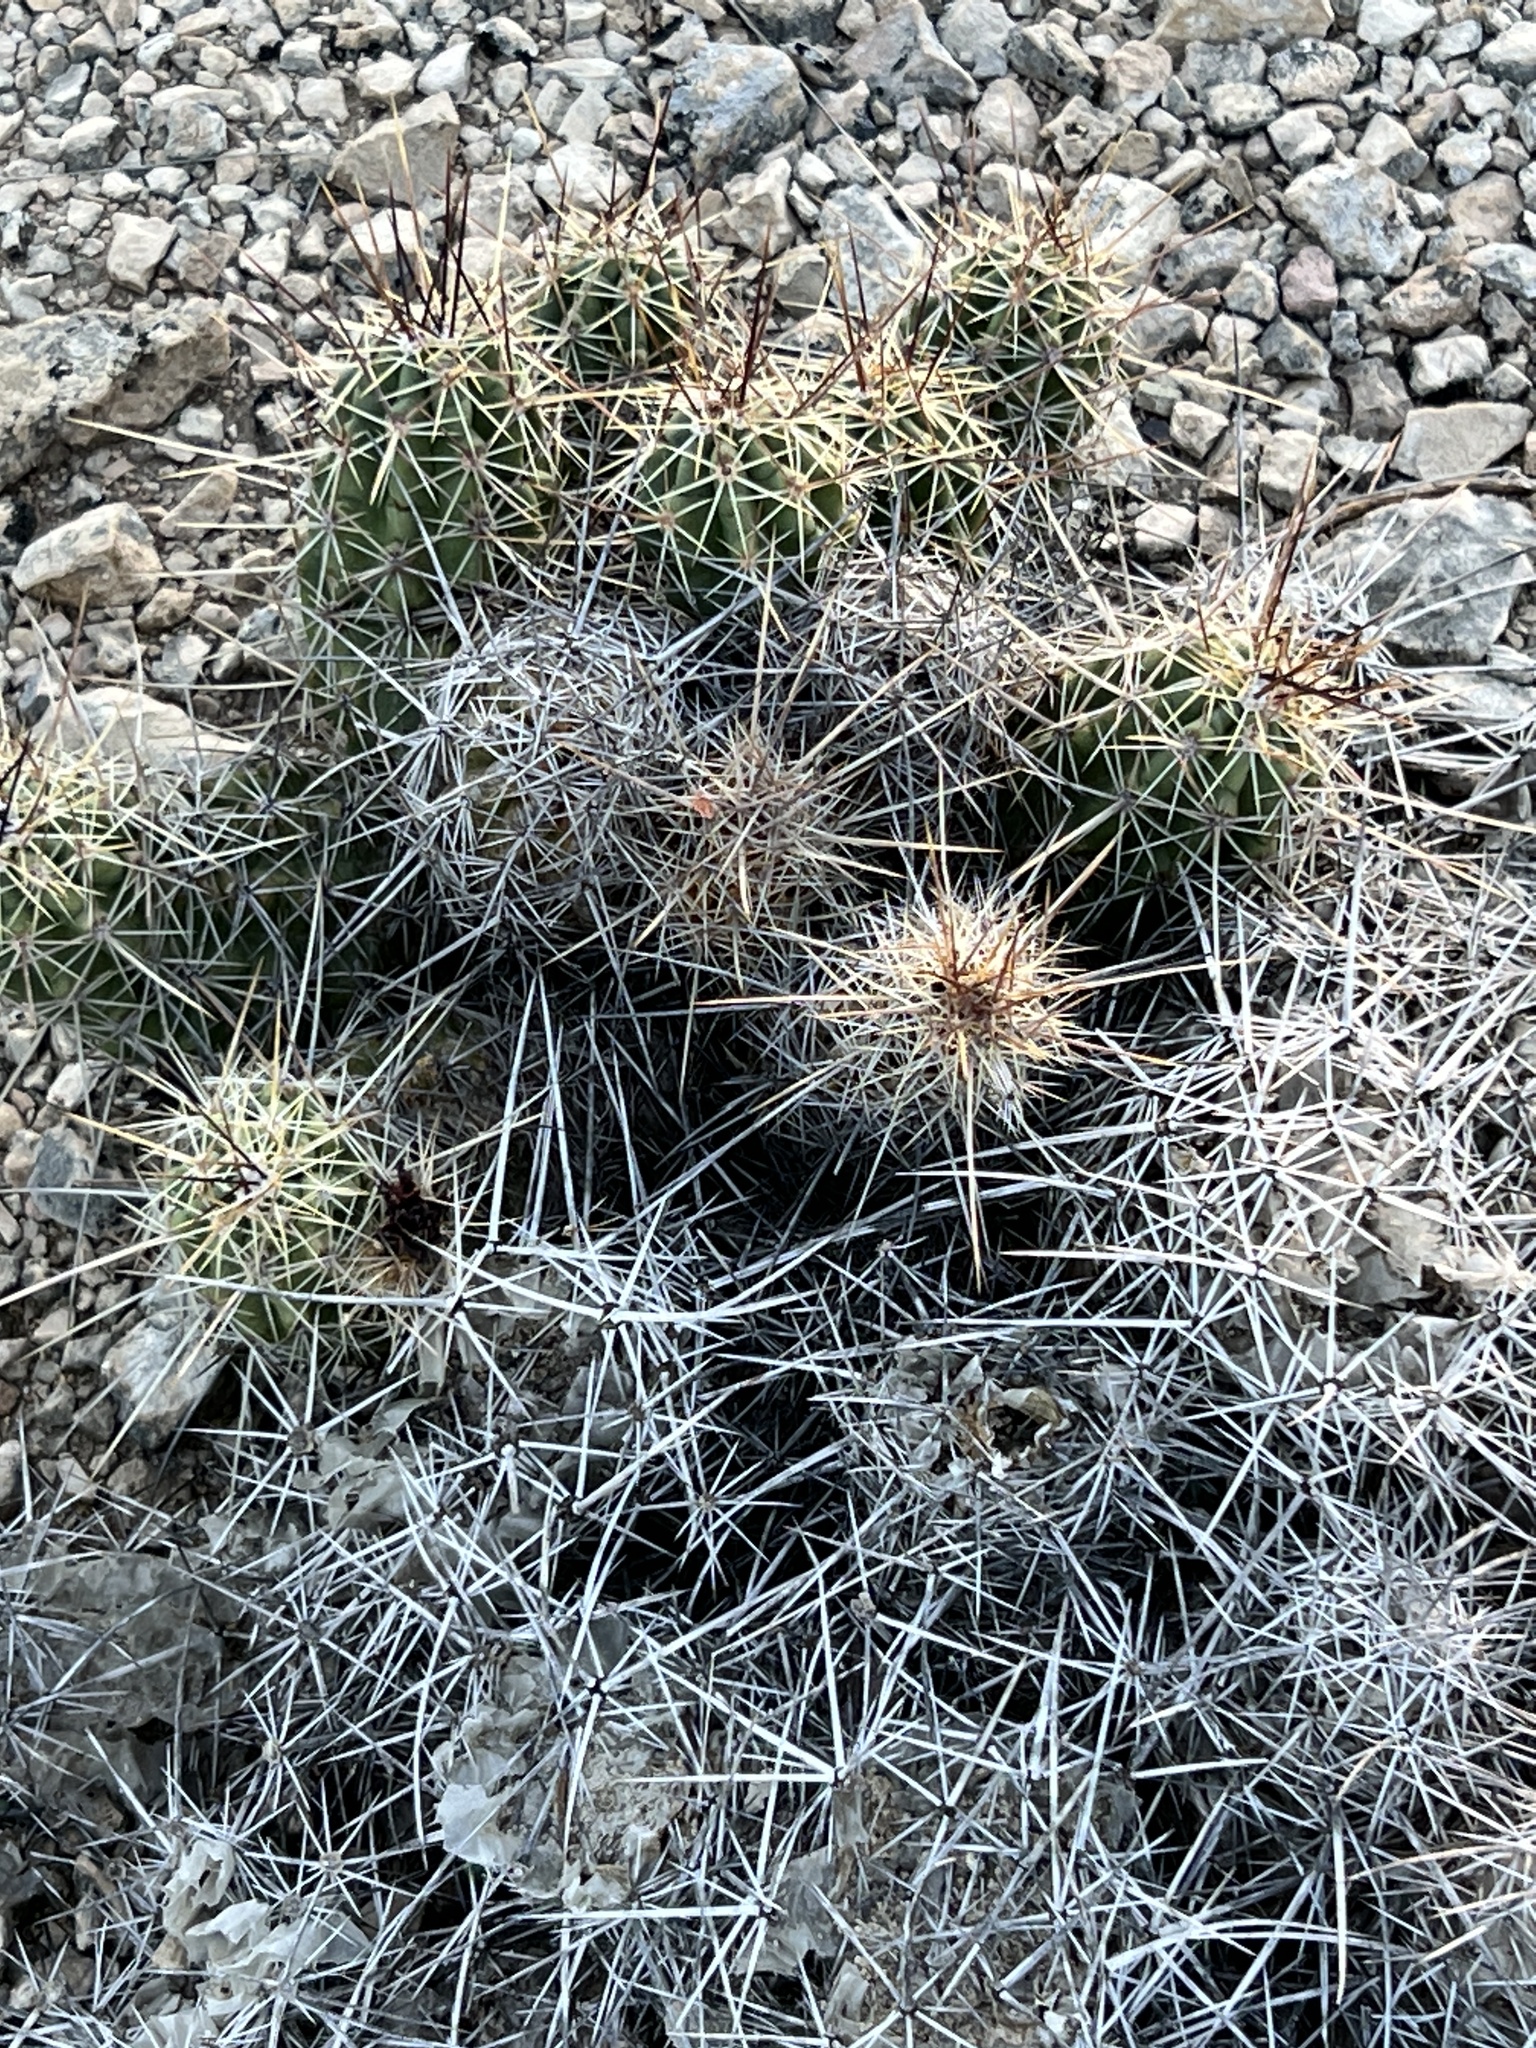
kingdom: Plantae
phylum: Tracheophyta
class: Magnoliopsida
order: Caryophyllales
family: Cactaceae
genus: Echinocereus
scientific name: Echinocereus enneacanthus
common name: Pitaya
